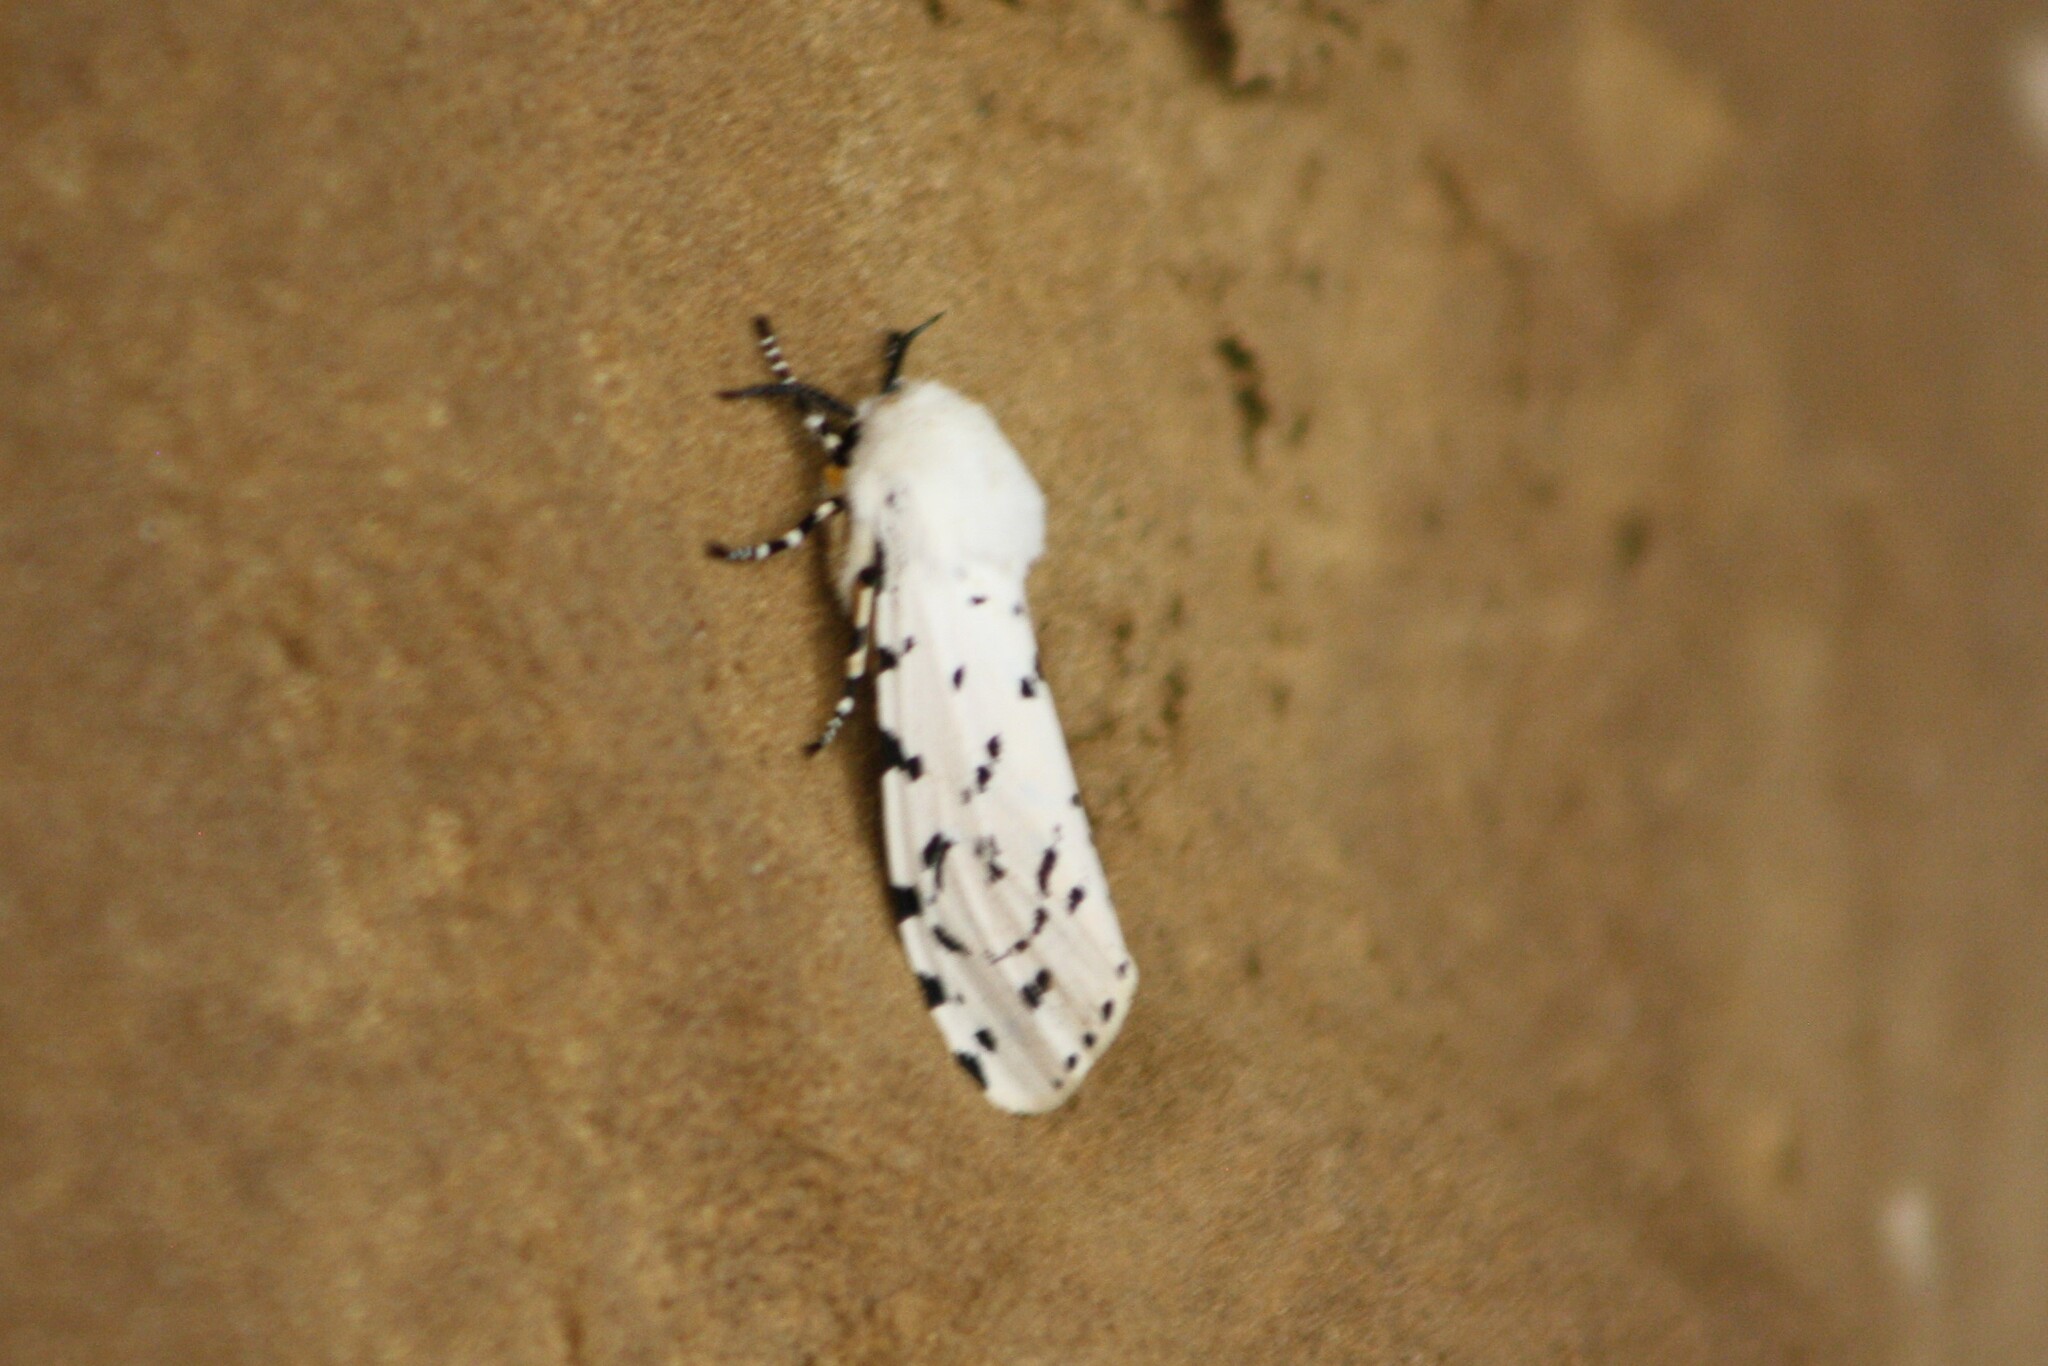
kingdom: Animalia
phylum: Arthropoda
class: Insecta
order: Lepidoptera
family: Erebidae
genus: Estigmene
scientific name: Estigmene acrea
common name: Salt marsh moth
